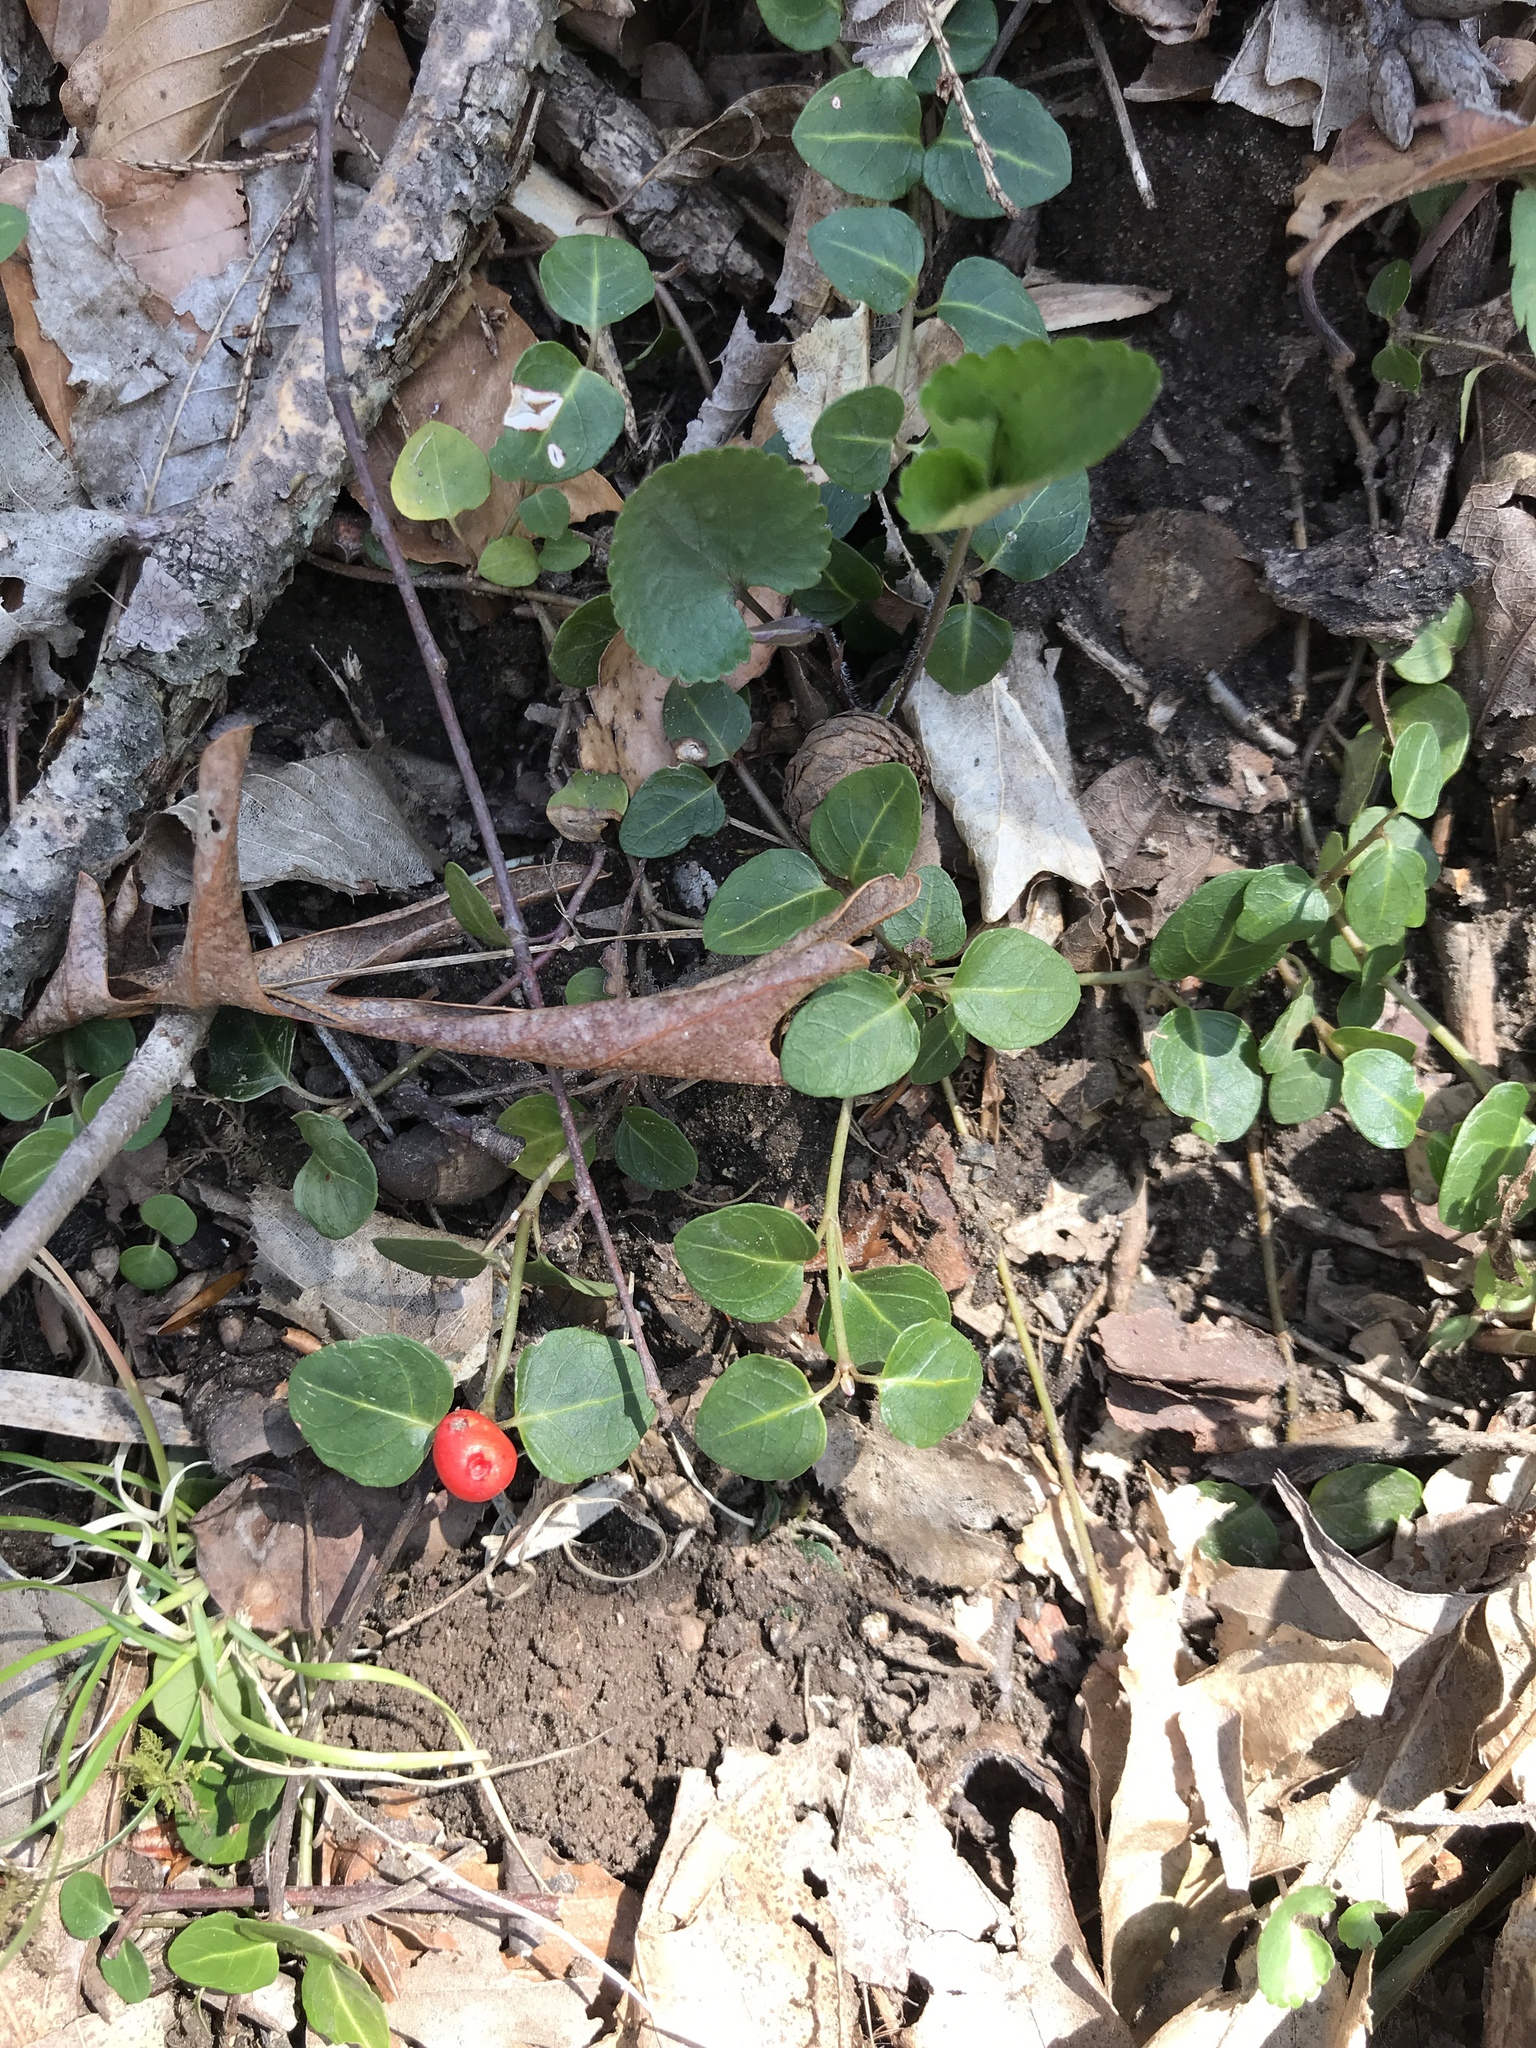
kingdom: Plantae
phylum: Tracheophyta
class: Magnoliopsida
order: Gentianales
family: Rubiaceae
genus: Mitchella
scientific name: Mitchella repens
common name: Partridge-berry
